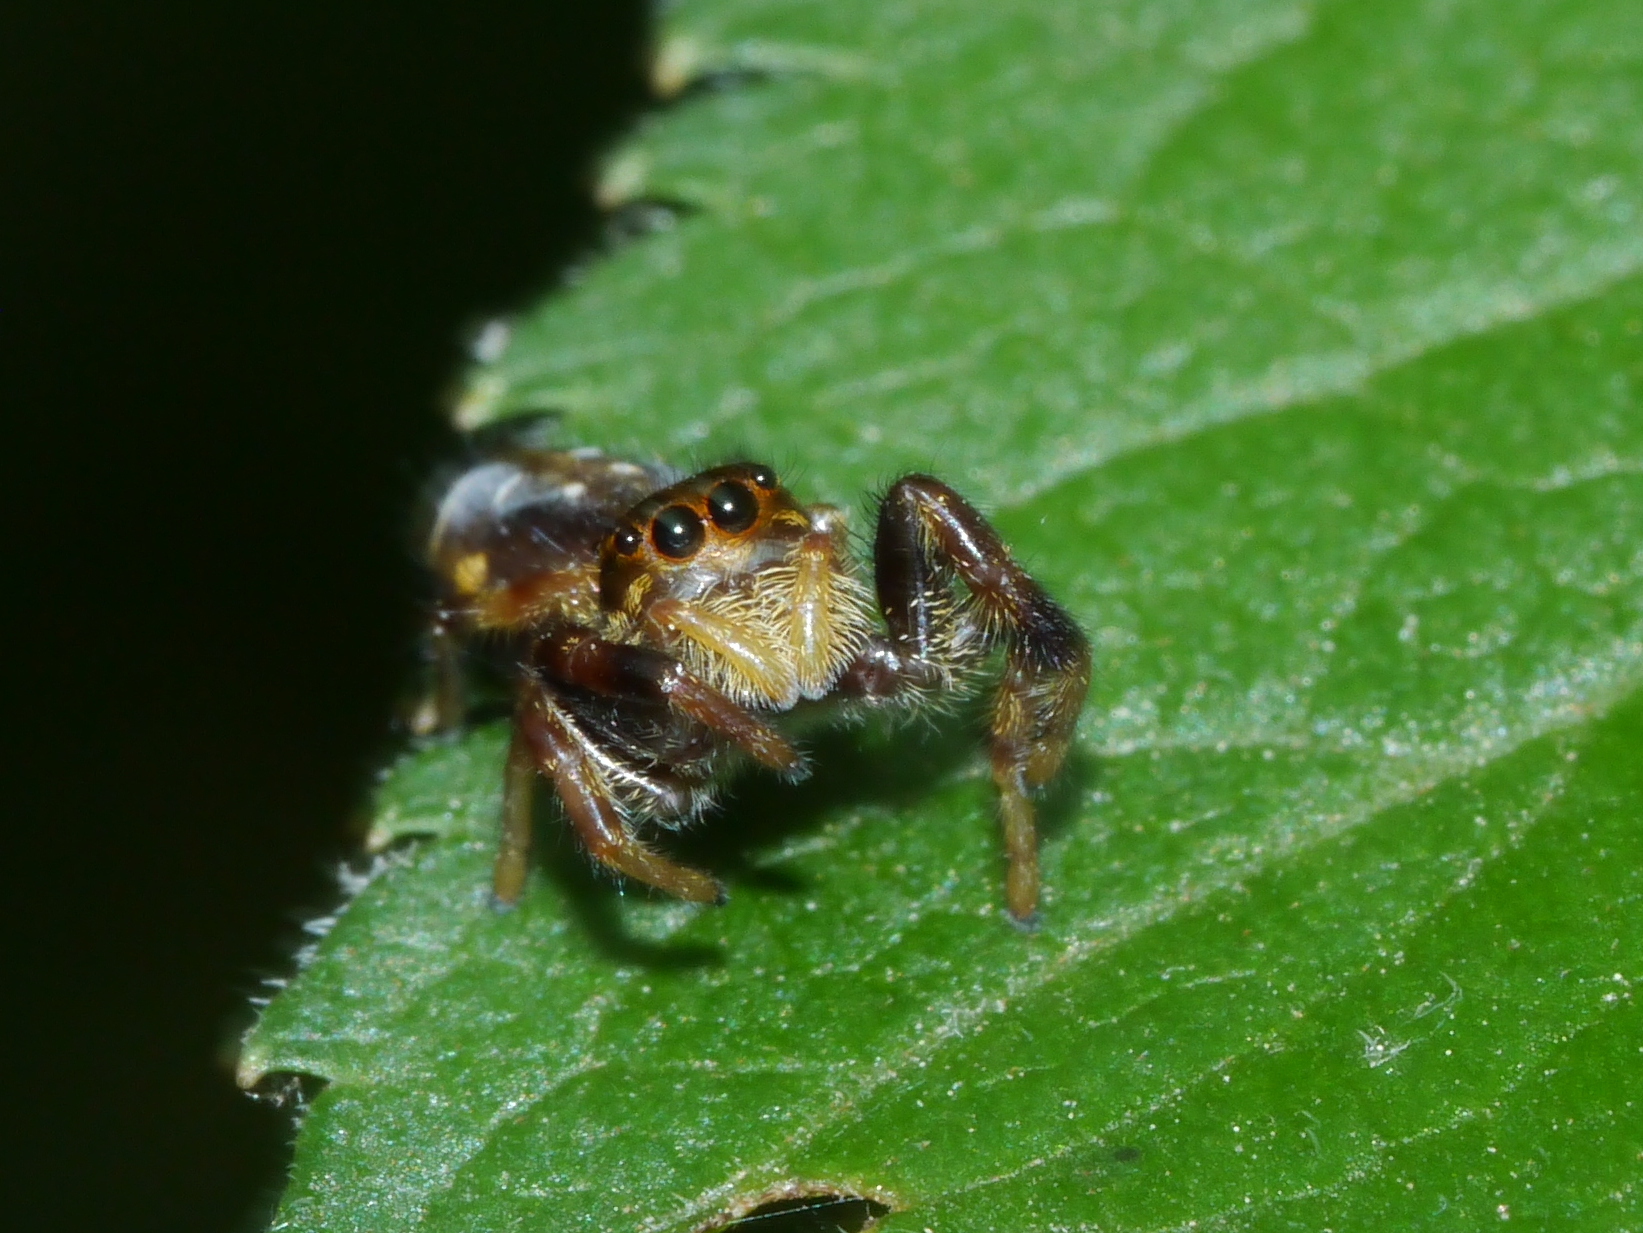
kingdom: Animalia
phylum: Arthropoda
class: Arachnida
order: Araneae
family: Salticidae
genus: Paraphidippus
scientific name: Paraphidippus aurantius
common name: Jumping spiders
